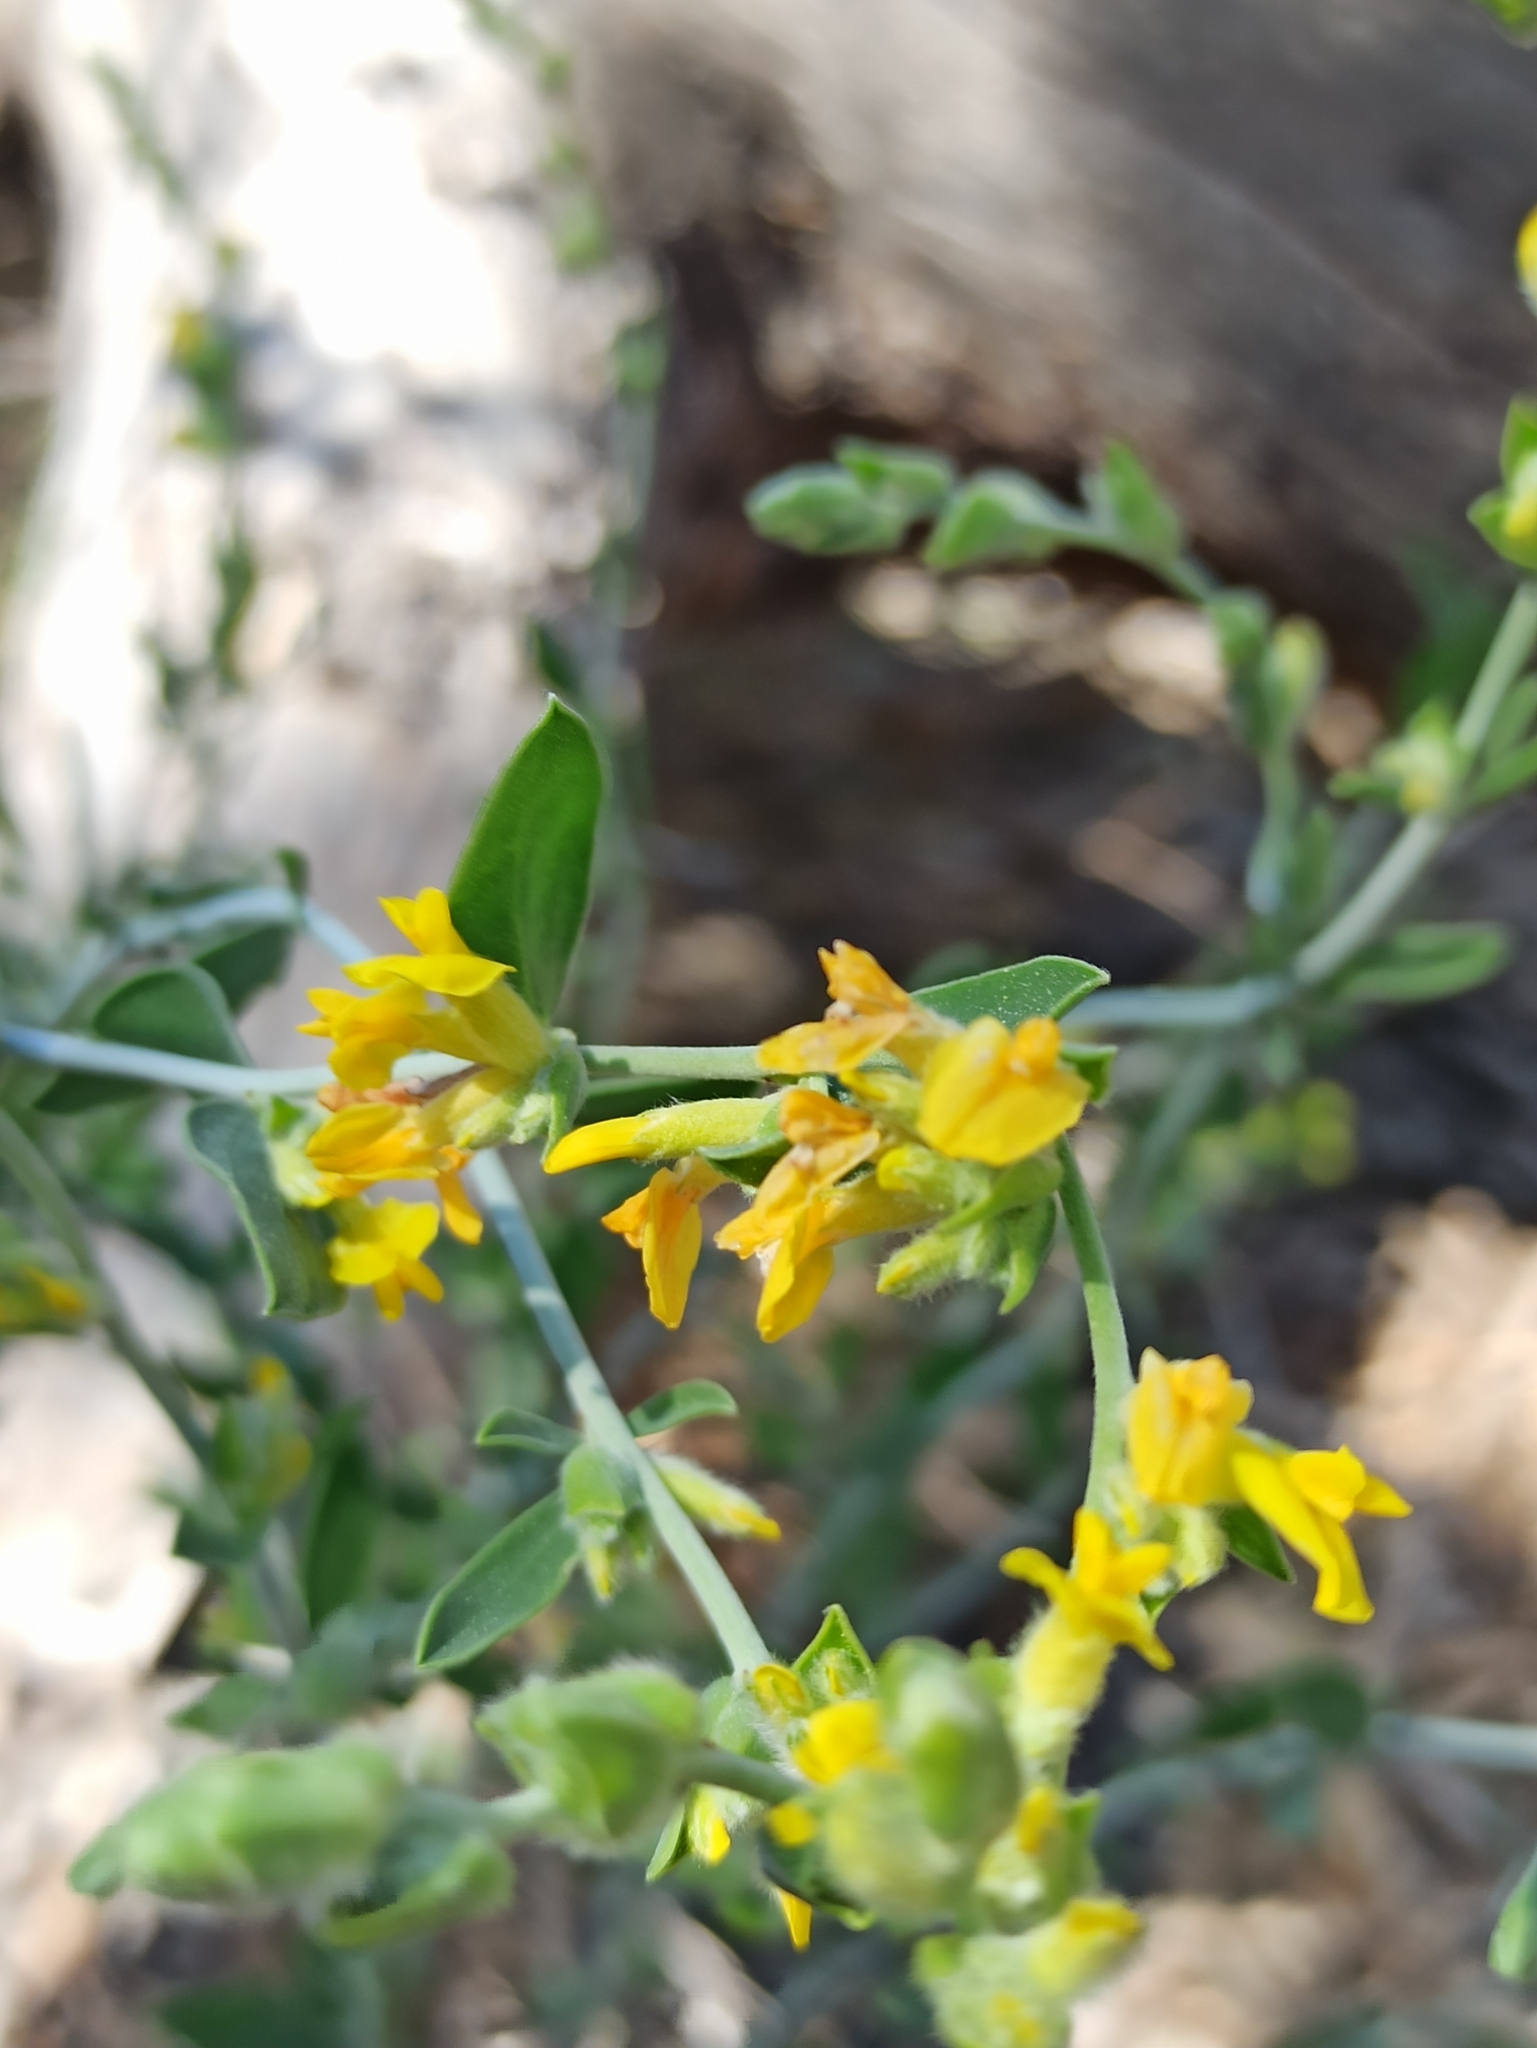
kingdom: Plantae
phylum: Tracheophyta
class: Magnoliopsida
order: Fabales
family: Fabaceae
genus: Anthyllis
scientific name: Anthyllis cytisoides
